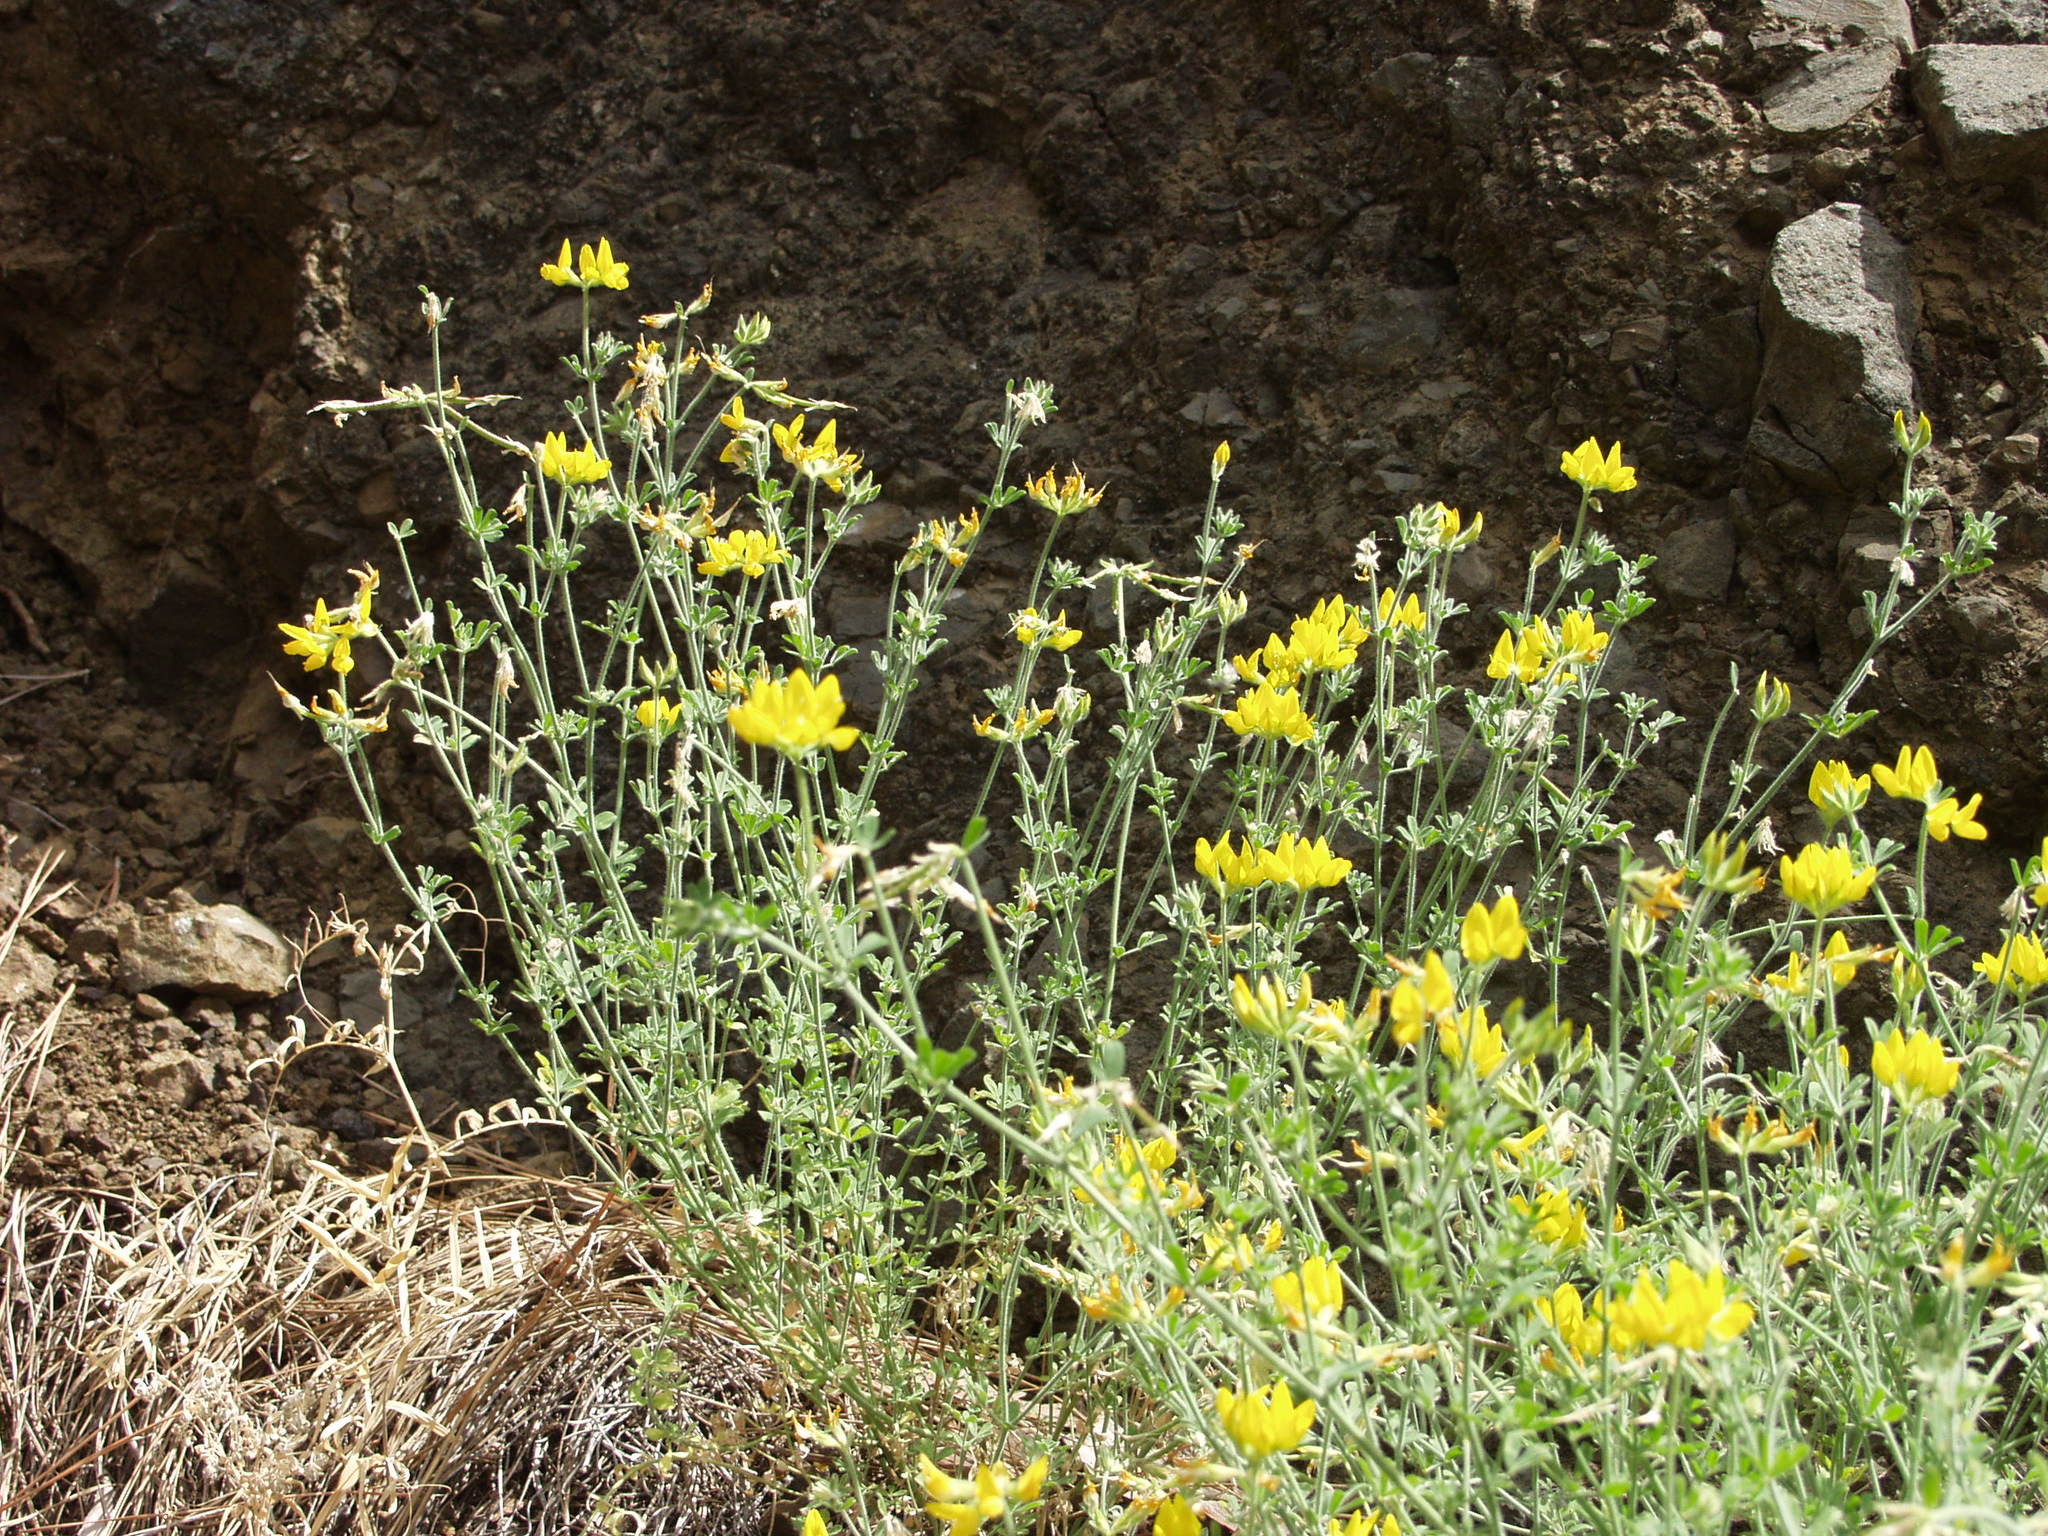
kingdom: Plantae
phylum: Tracheophyta
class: Magnoliopsida
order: Fabales
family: Fabaceae
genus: Lotus
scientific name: Lotus campylocladus
